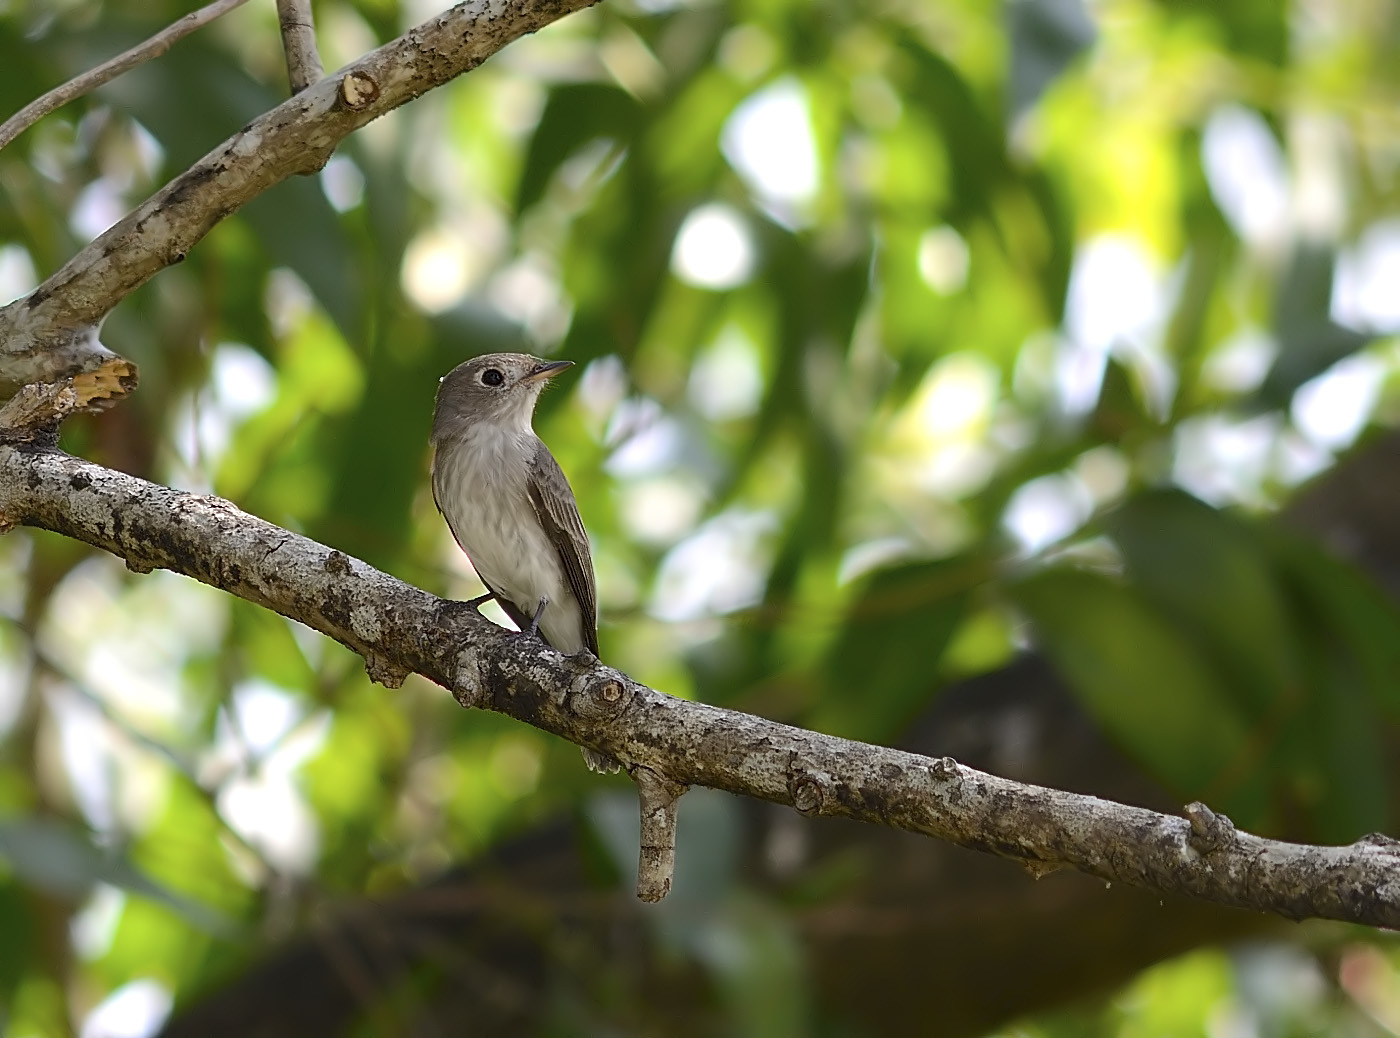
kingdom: Animalia
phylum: Chordata
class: Aves
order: Passeriformes
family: Muscicapidae
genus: Muscicapa
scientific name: Muscicapa latirostris
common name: Asian brown flycatcher
